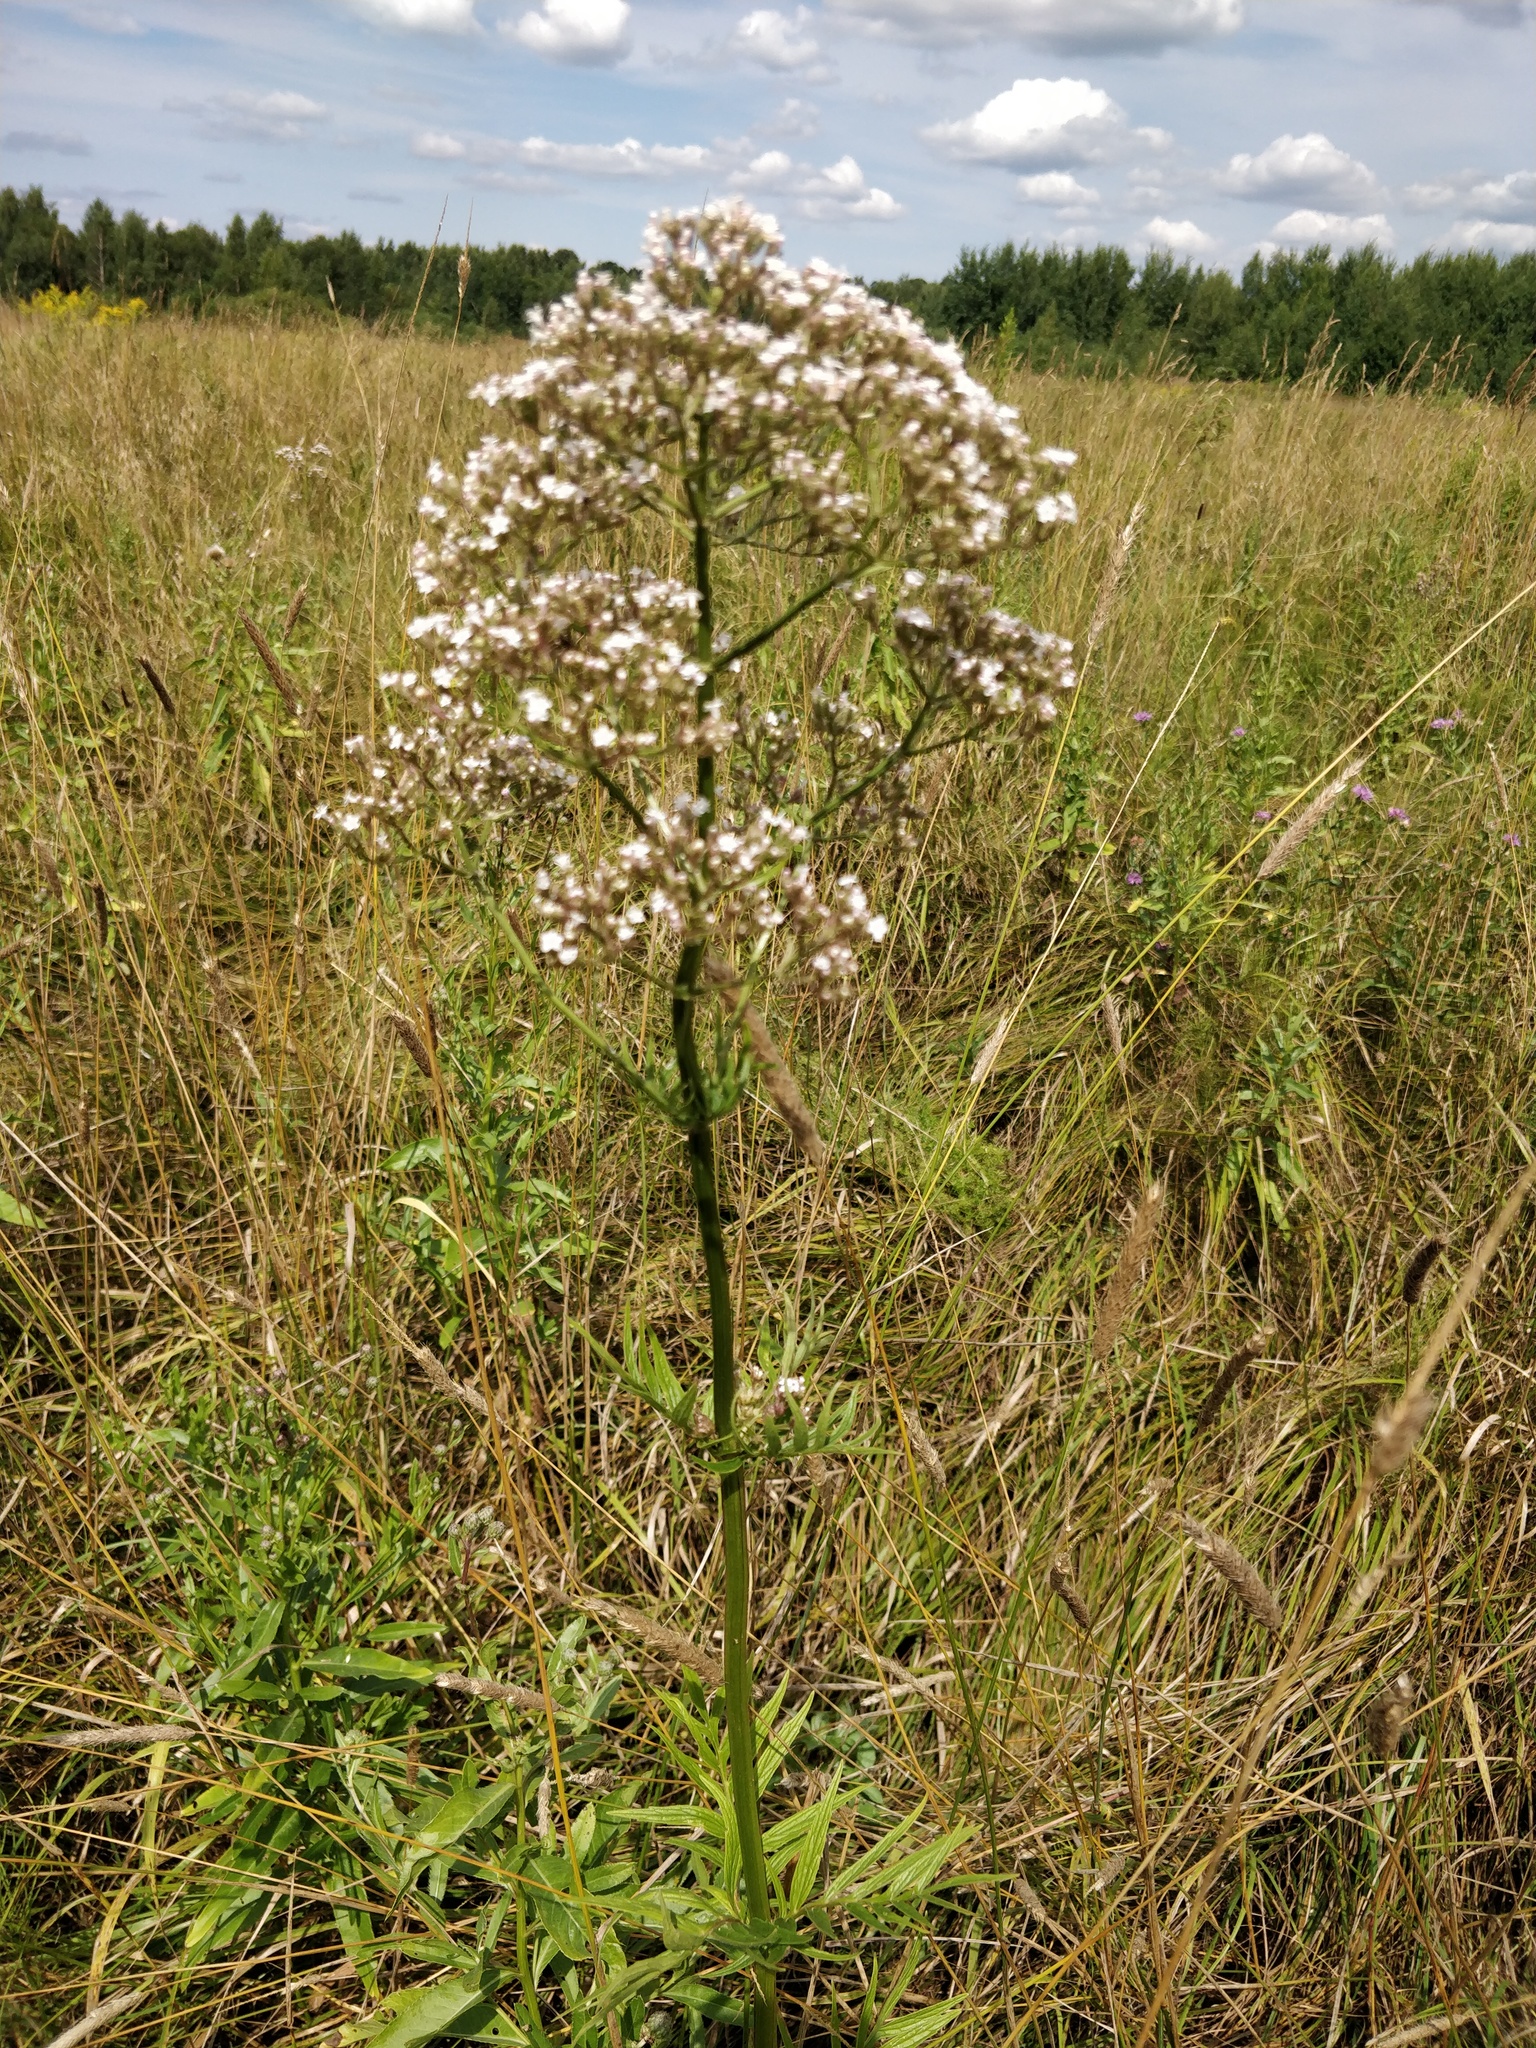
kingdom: Plantae
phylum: Tracheophyta
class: Magnoliopsida
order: Dipsacales
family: Caprifoliaceae
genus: Valeriana
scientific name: Valeriana officinalis
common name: Common valerian
